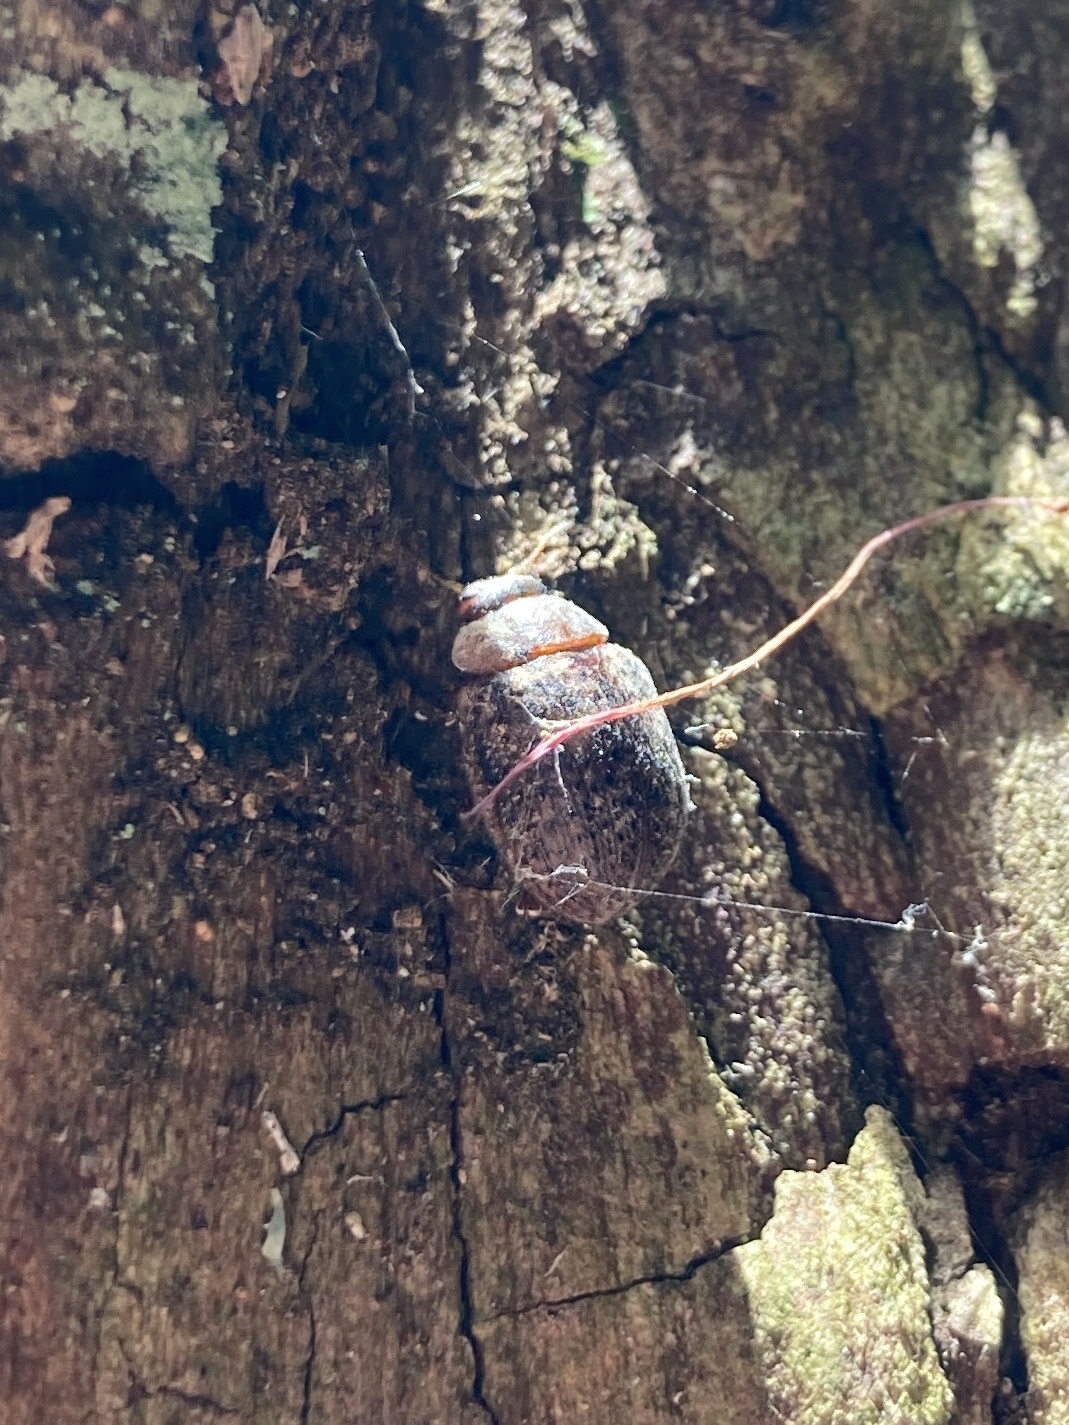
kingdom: Animalia
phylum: Arthropoda
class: Insecta
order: Coleoptera
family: Chrysomelidae
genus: Trachymela
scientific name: Trachymela sloanei
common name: Australian tortoise beetle
